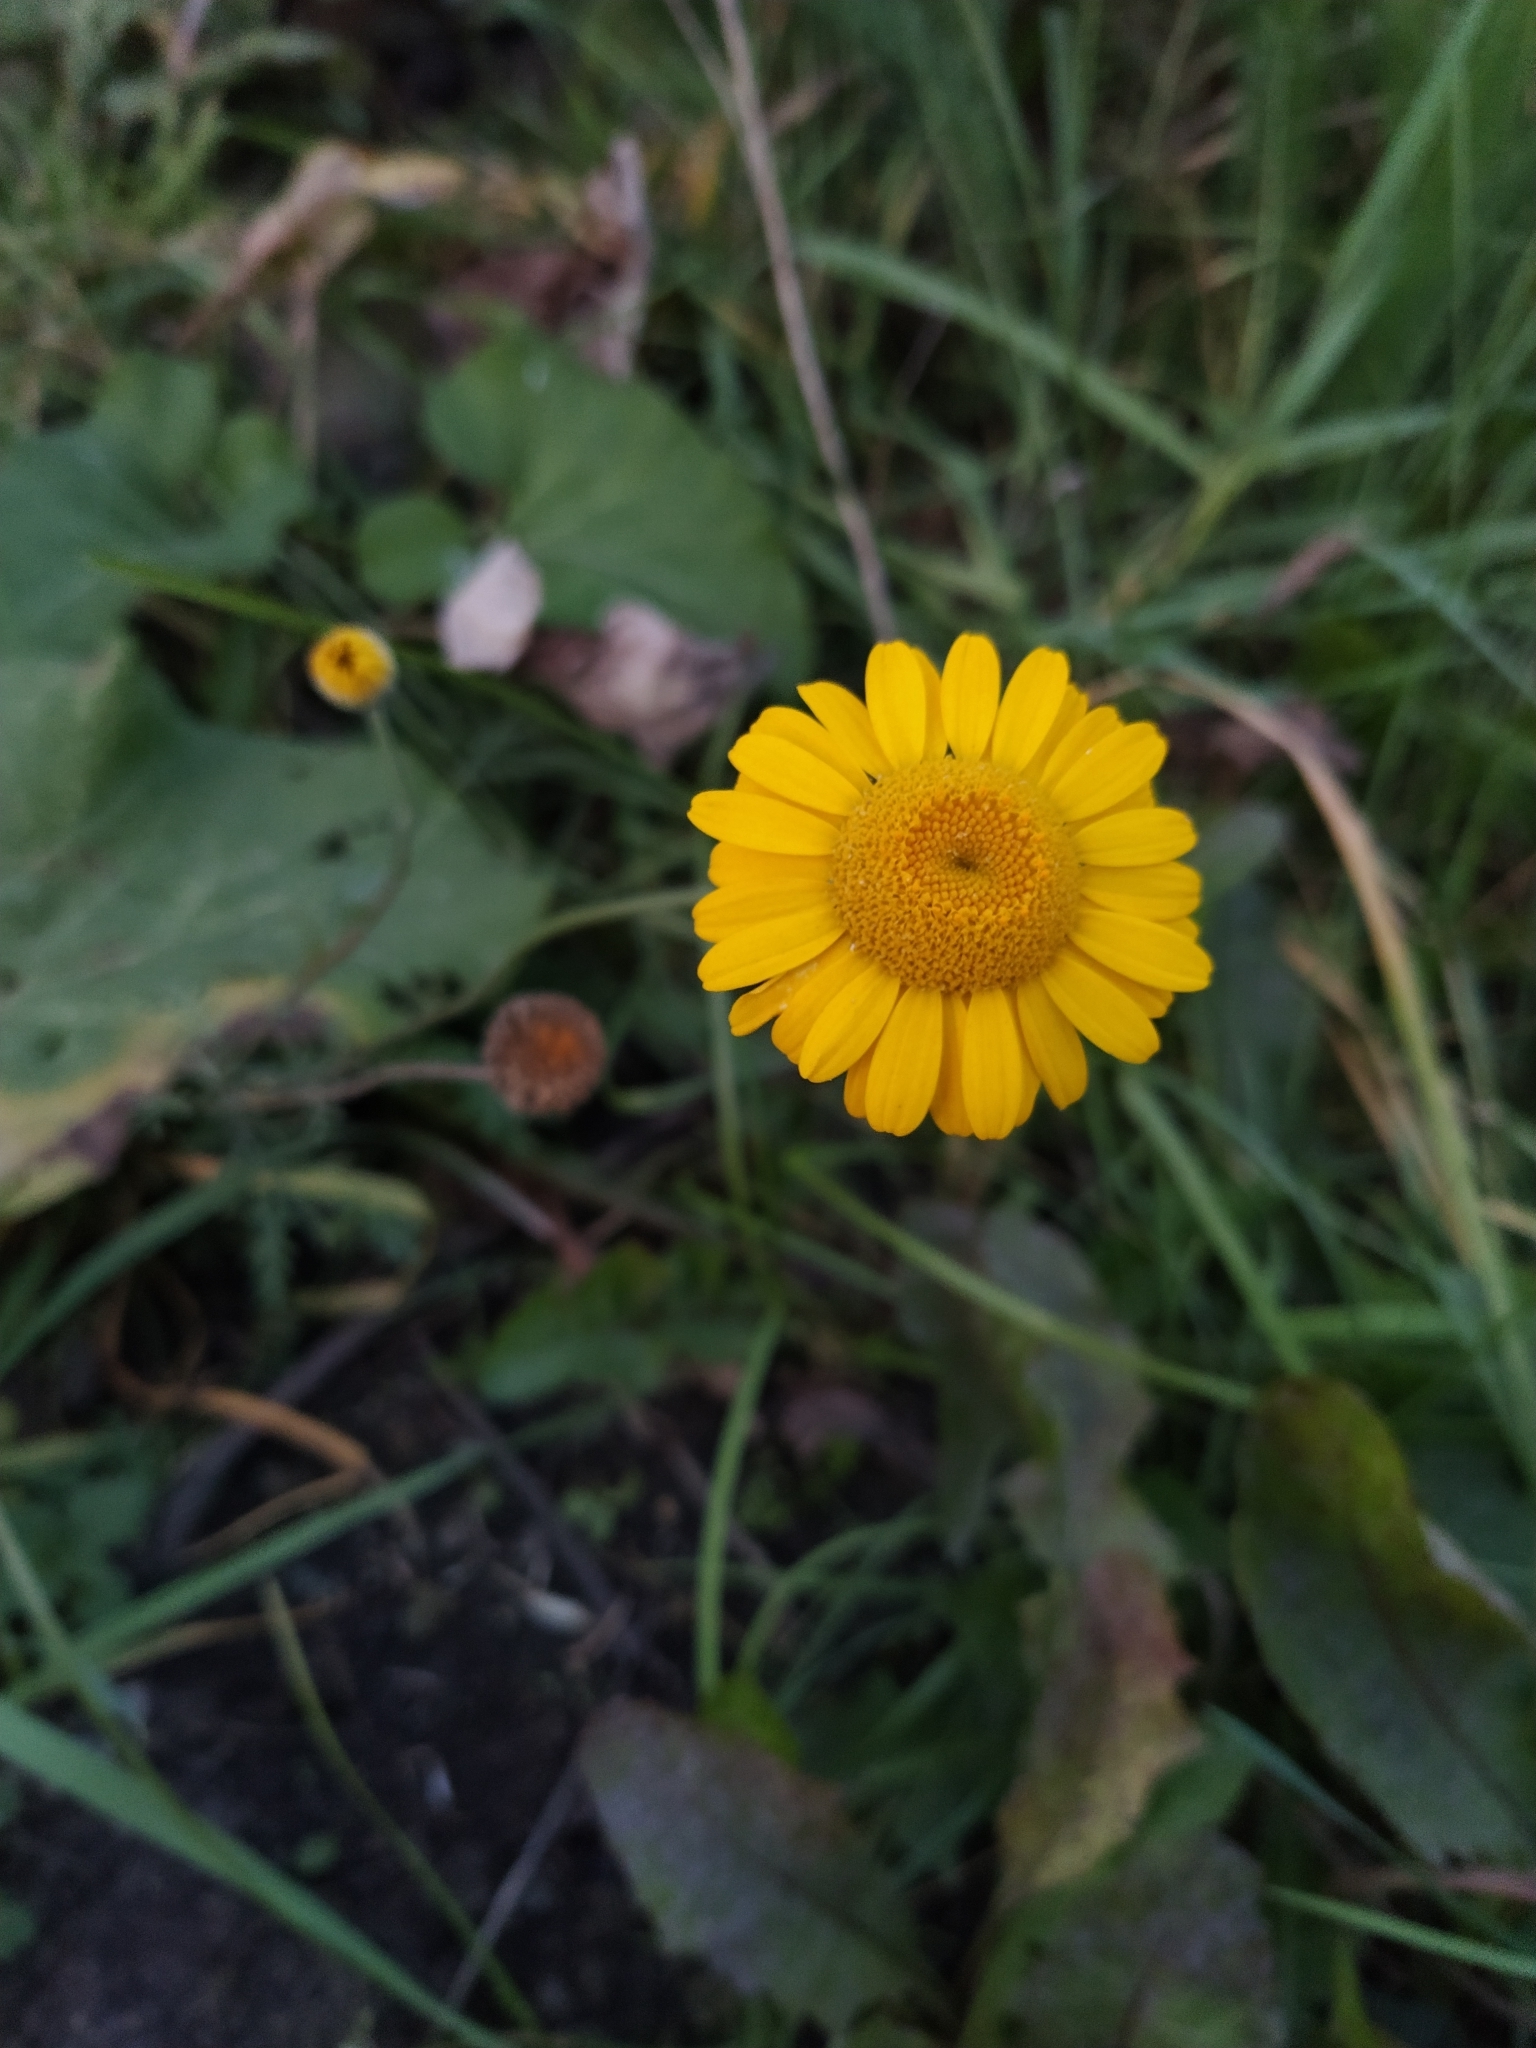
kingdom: Plantae
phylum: Tracheophyta
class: Magnoliopsida
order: Asterales
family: Asteraceae
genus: Cota
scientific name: Cota tinctoria
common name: Golden chamomile
